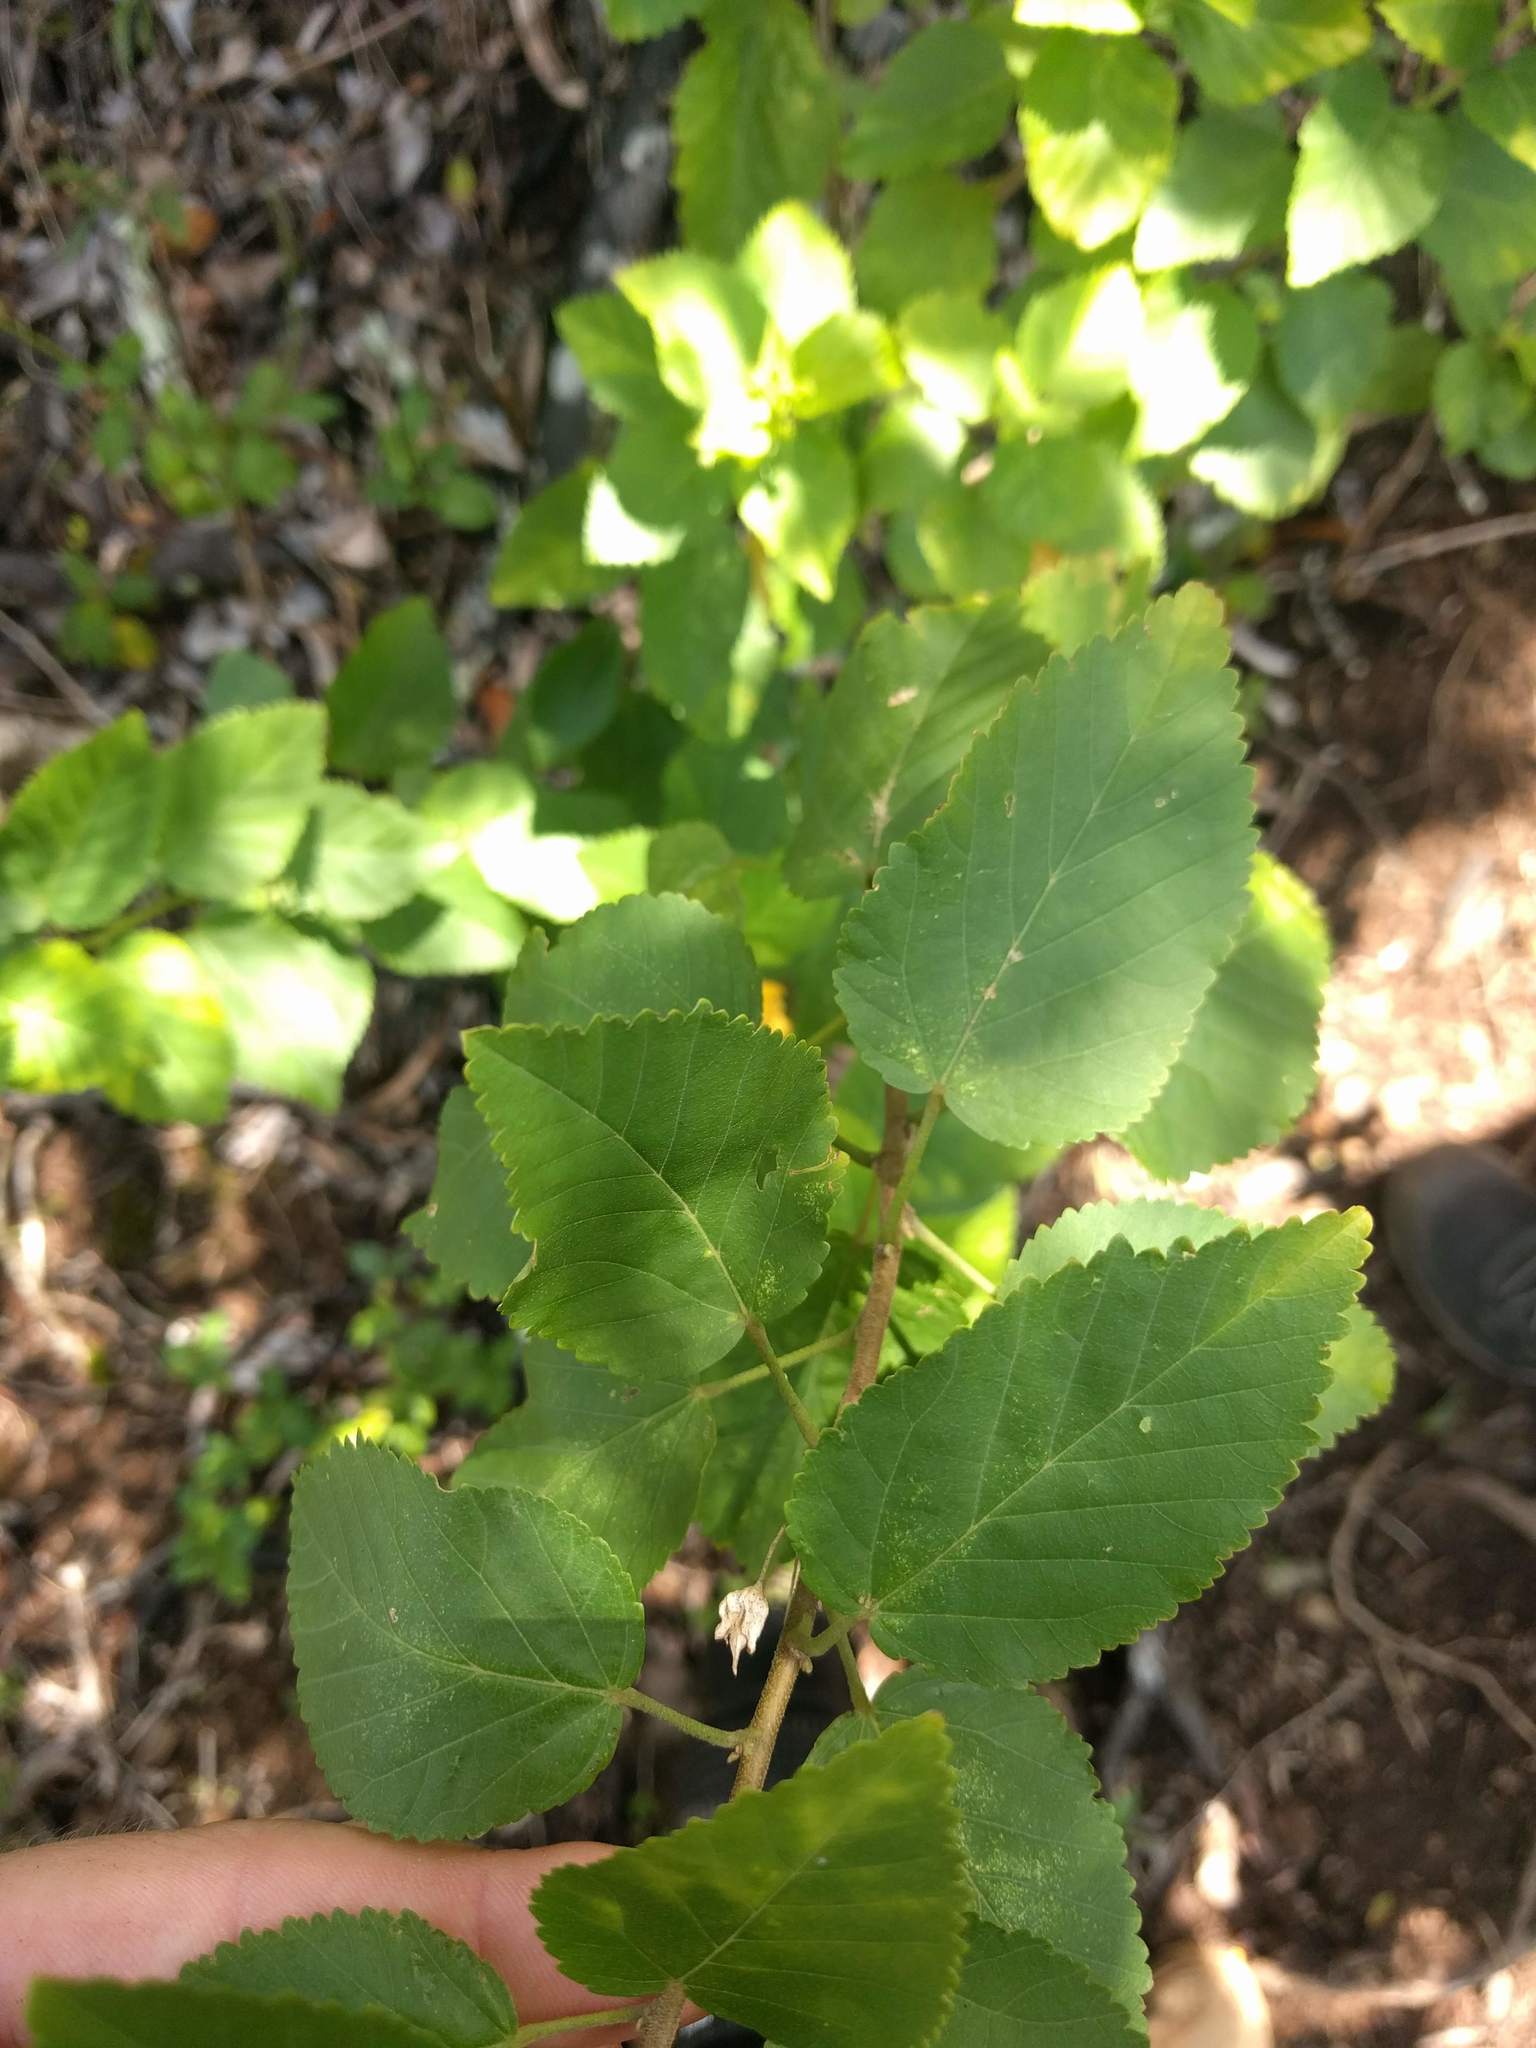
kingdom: Plantae
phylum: Tracheophyta
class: Magnoliopsida
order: Malvales
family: Malvaceae
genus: Sida
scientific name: Sida fallax
